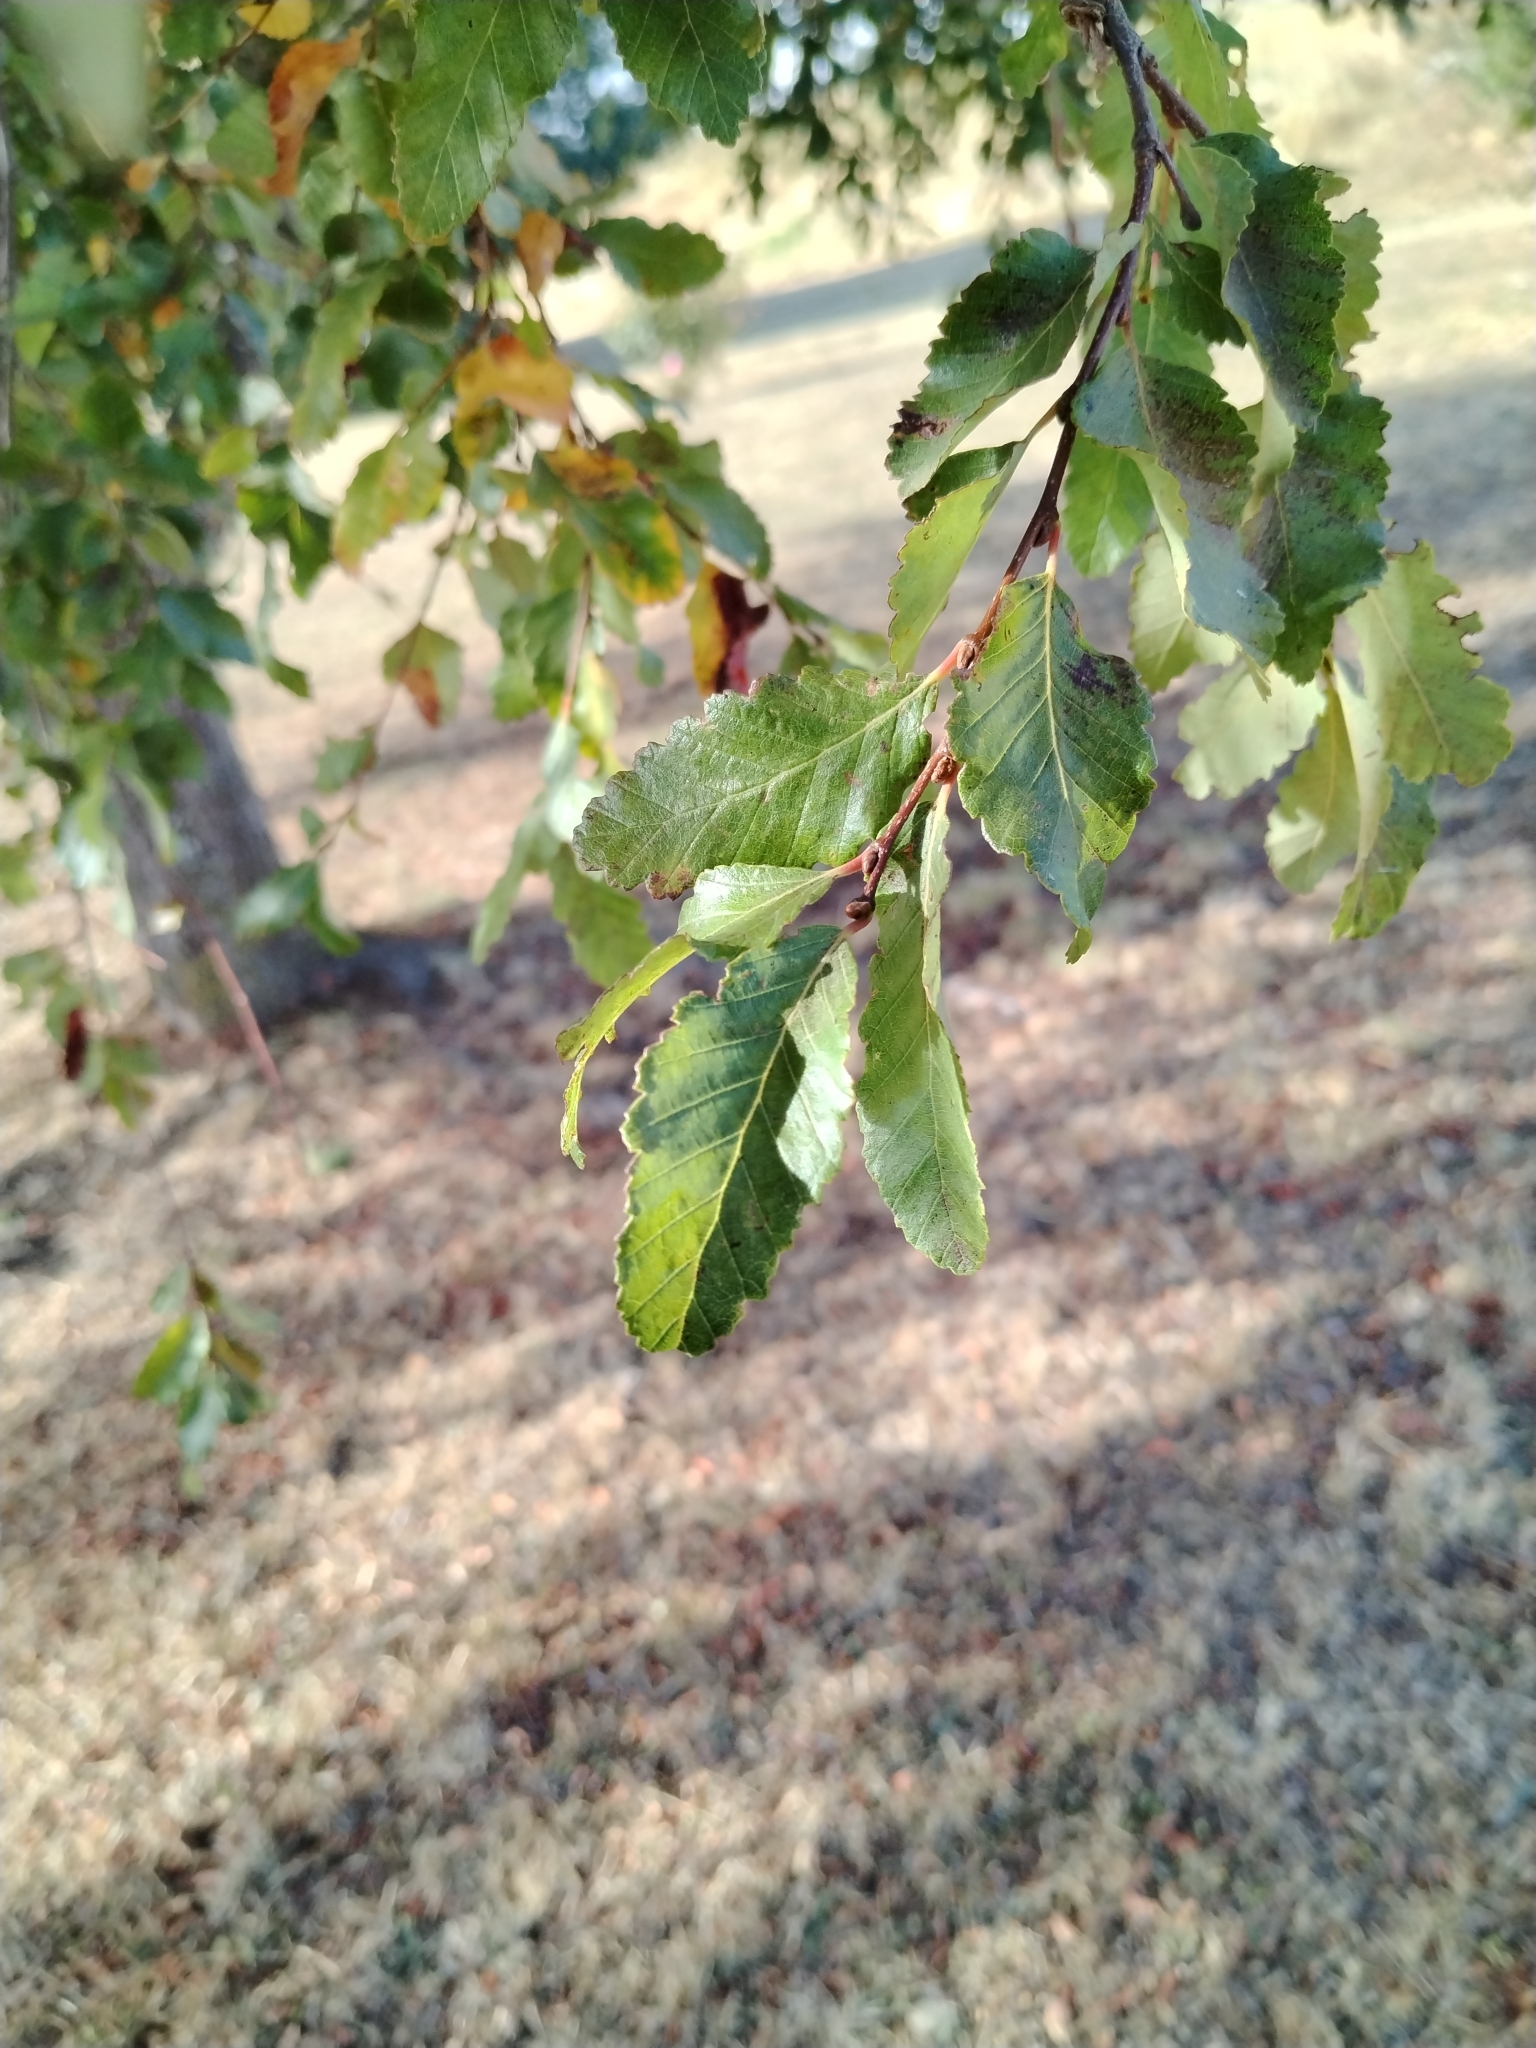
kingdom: Plantae
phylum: Tracheophyta
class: Magnoliopsida
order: Fagales
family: Nothofagaceae
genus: Nothofagus
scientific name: Nothofagus obliqua
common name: Roble beech
